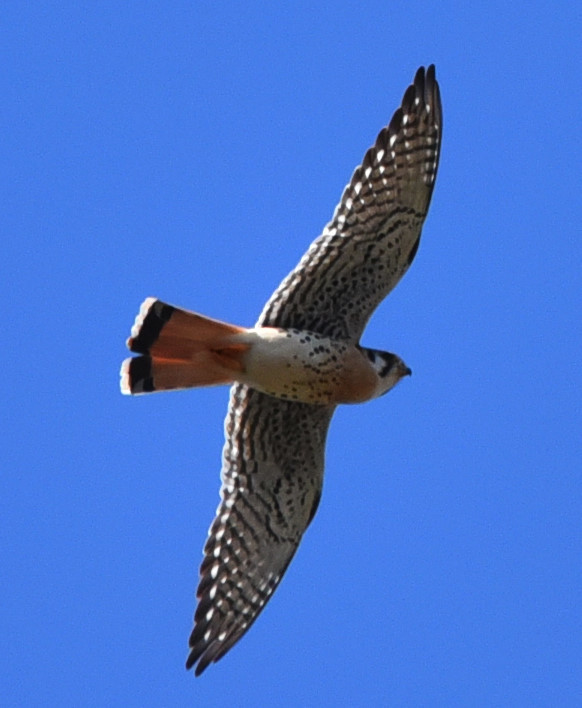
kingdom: Animalia
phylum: Chordata
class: Aves
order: Falconiformes
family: Falconidae
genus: Falco
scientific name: Falco sparverius
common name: American kestrel
